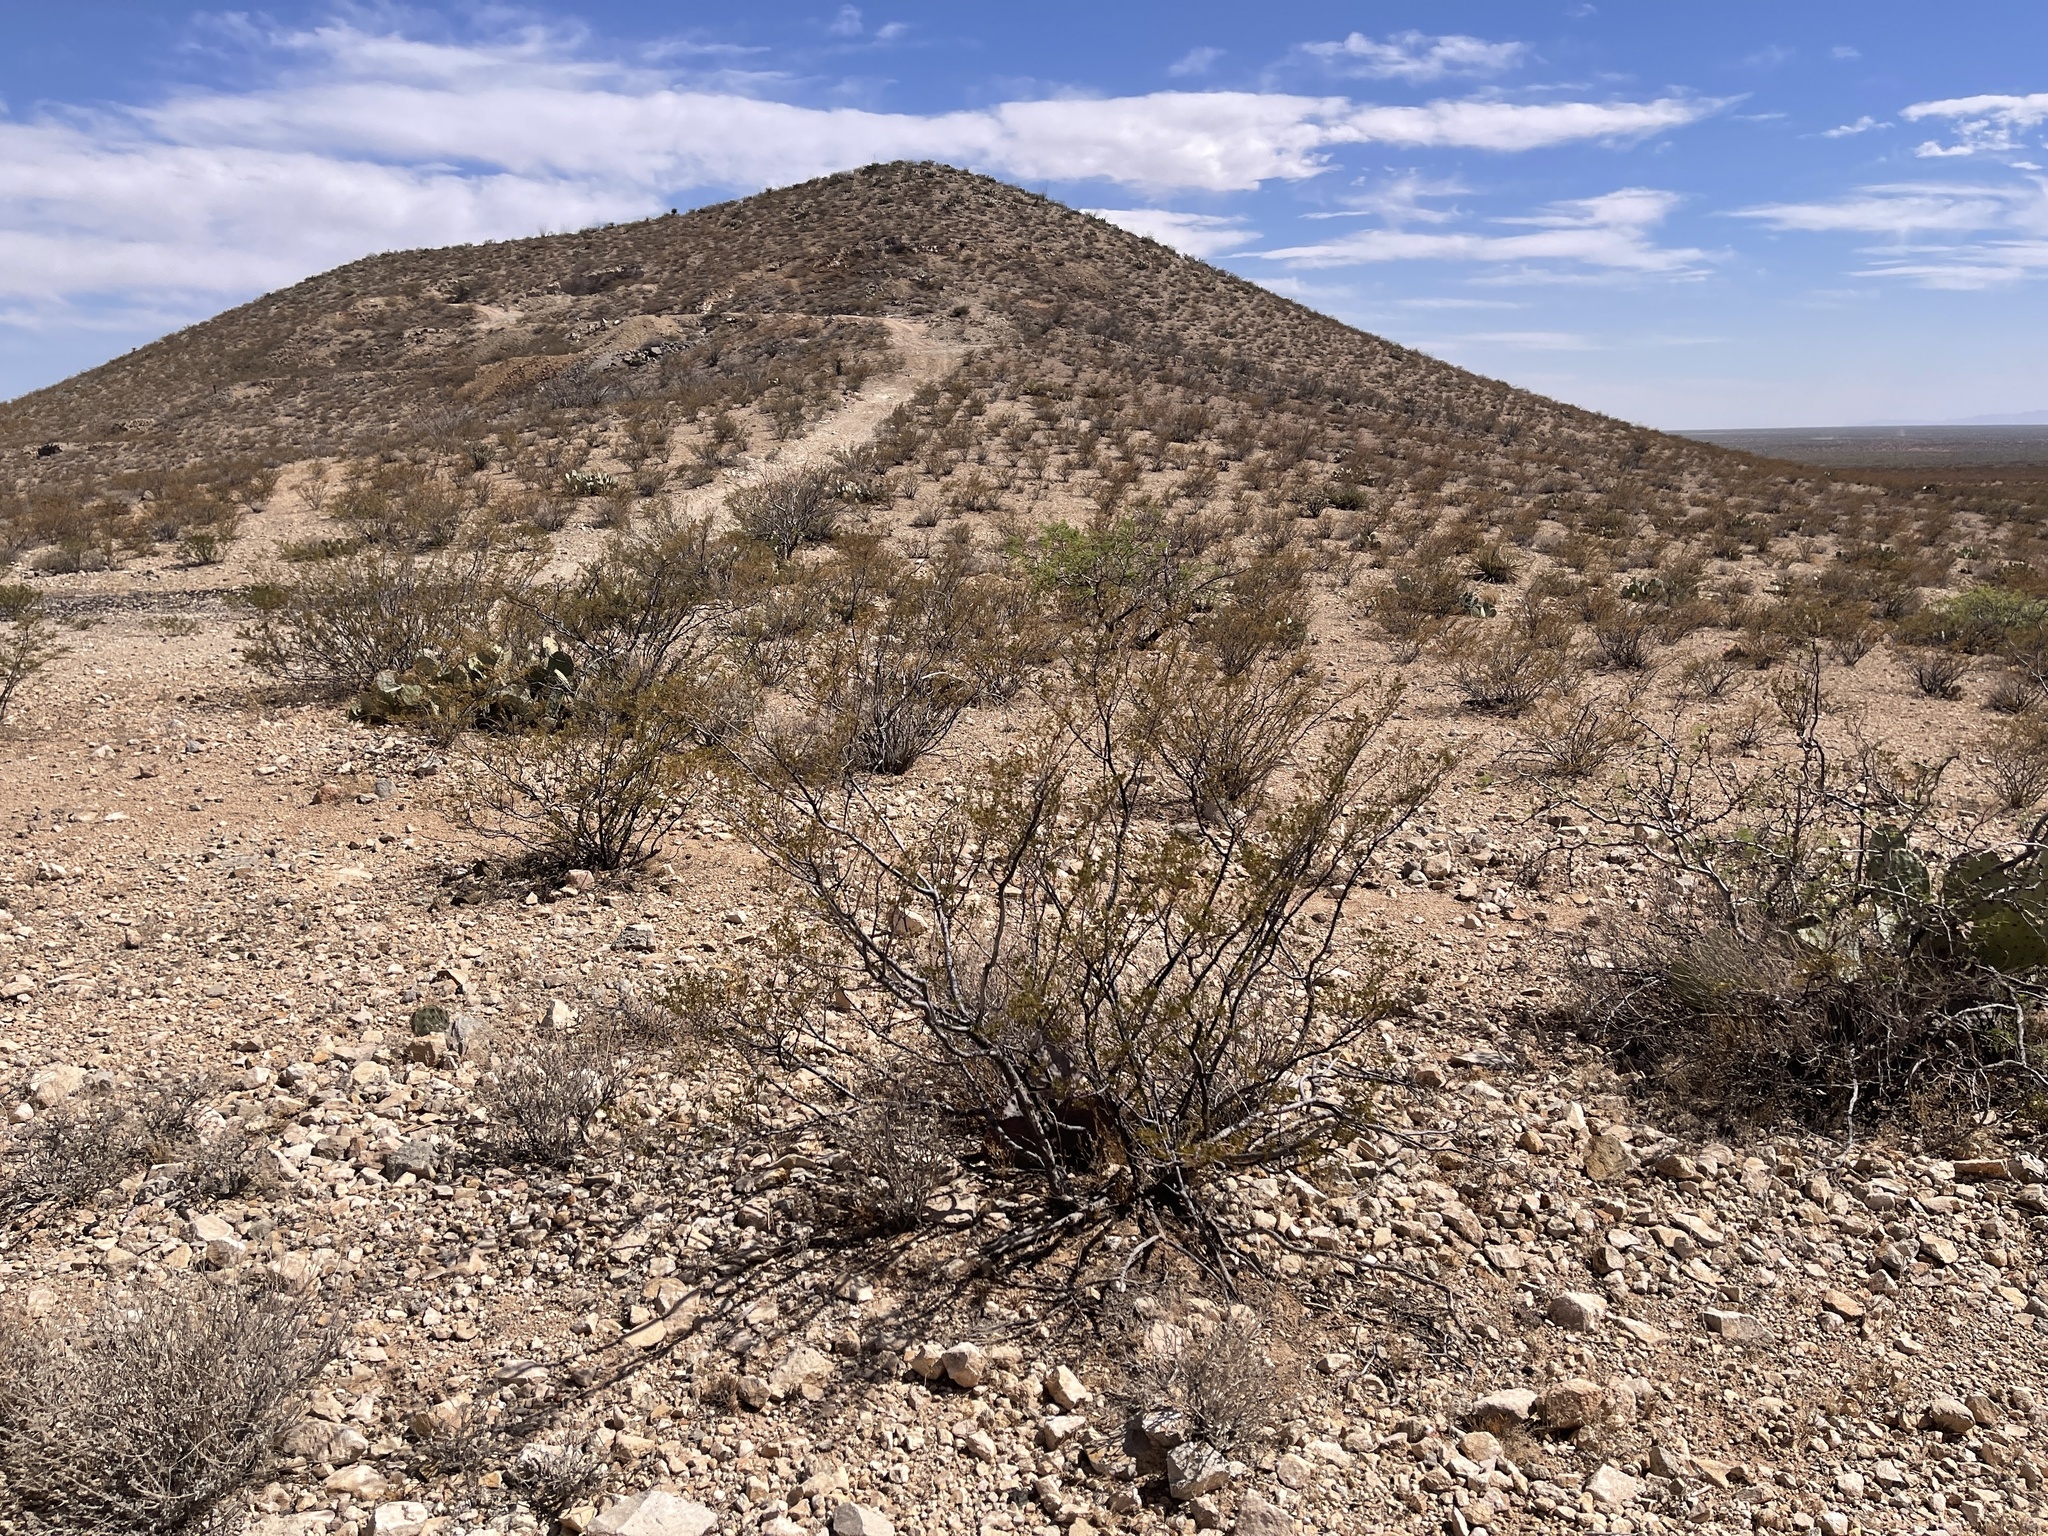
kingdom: Plantae
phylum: Tracheophyta
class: Magnoliopsida
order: Zygophyllales
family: Zygophyllaceae
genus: Larrea
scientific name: Larrea tridentata
